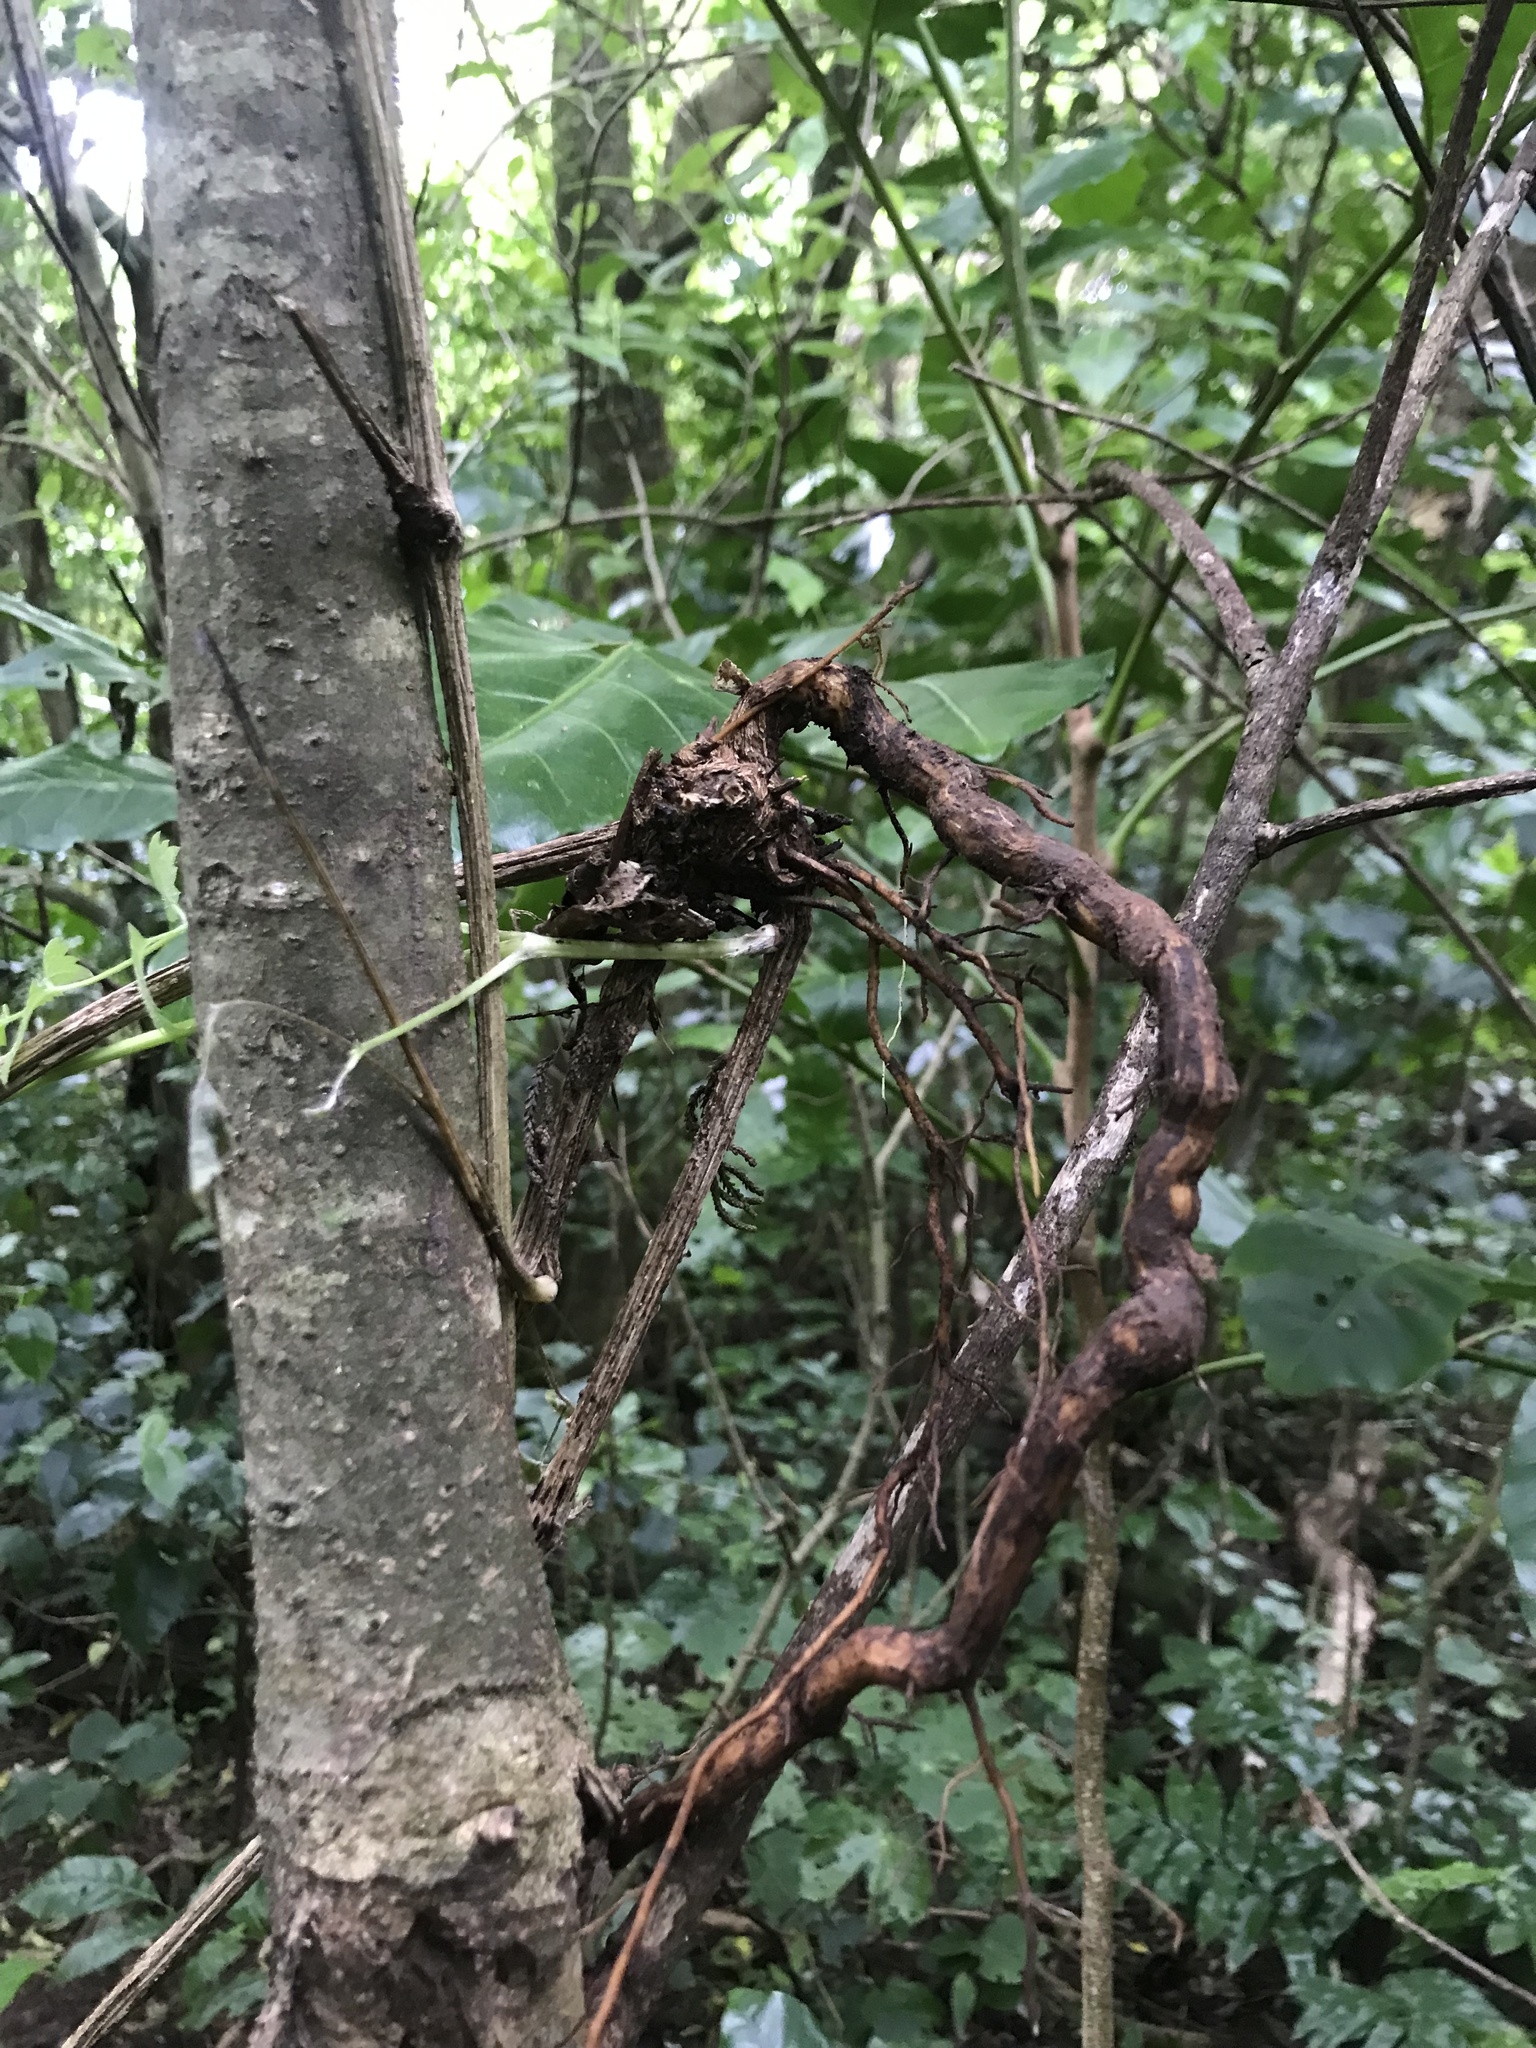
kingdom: Plantae
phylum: Tracheophyta
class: Magnoliopsida
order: Ranunculales
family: Ranunculaceae
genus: Clematis
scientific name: Clematis vitalba
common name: Evergreen clematis
